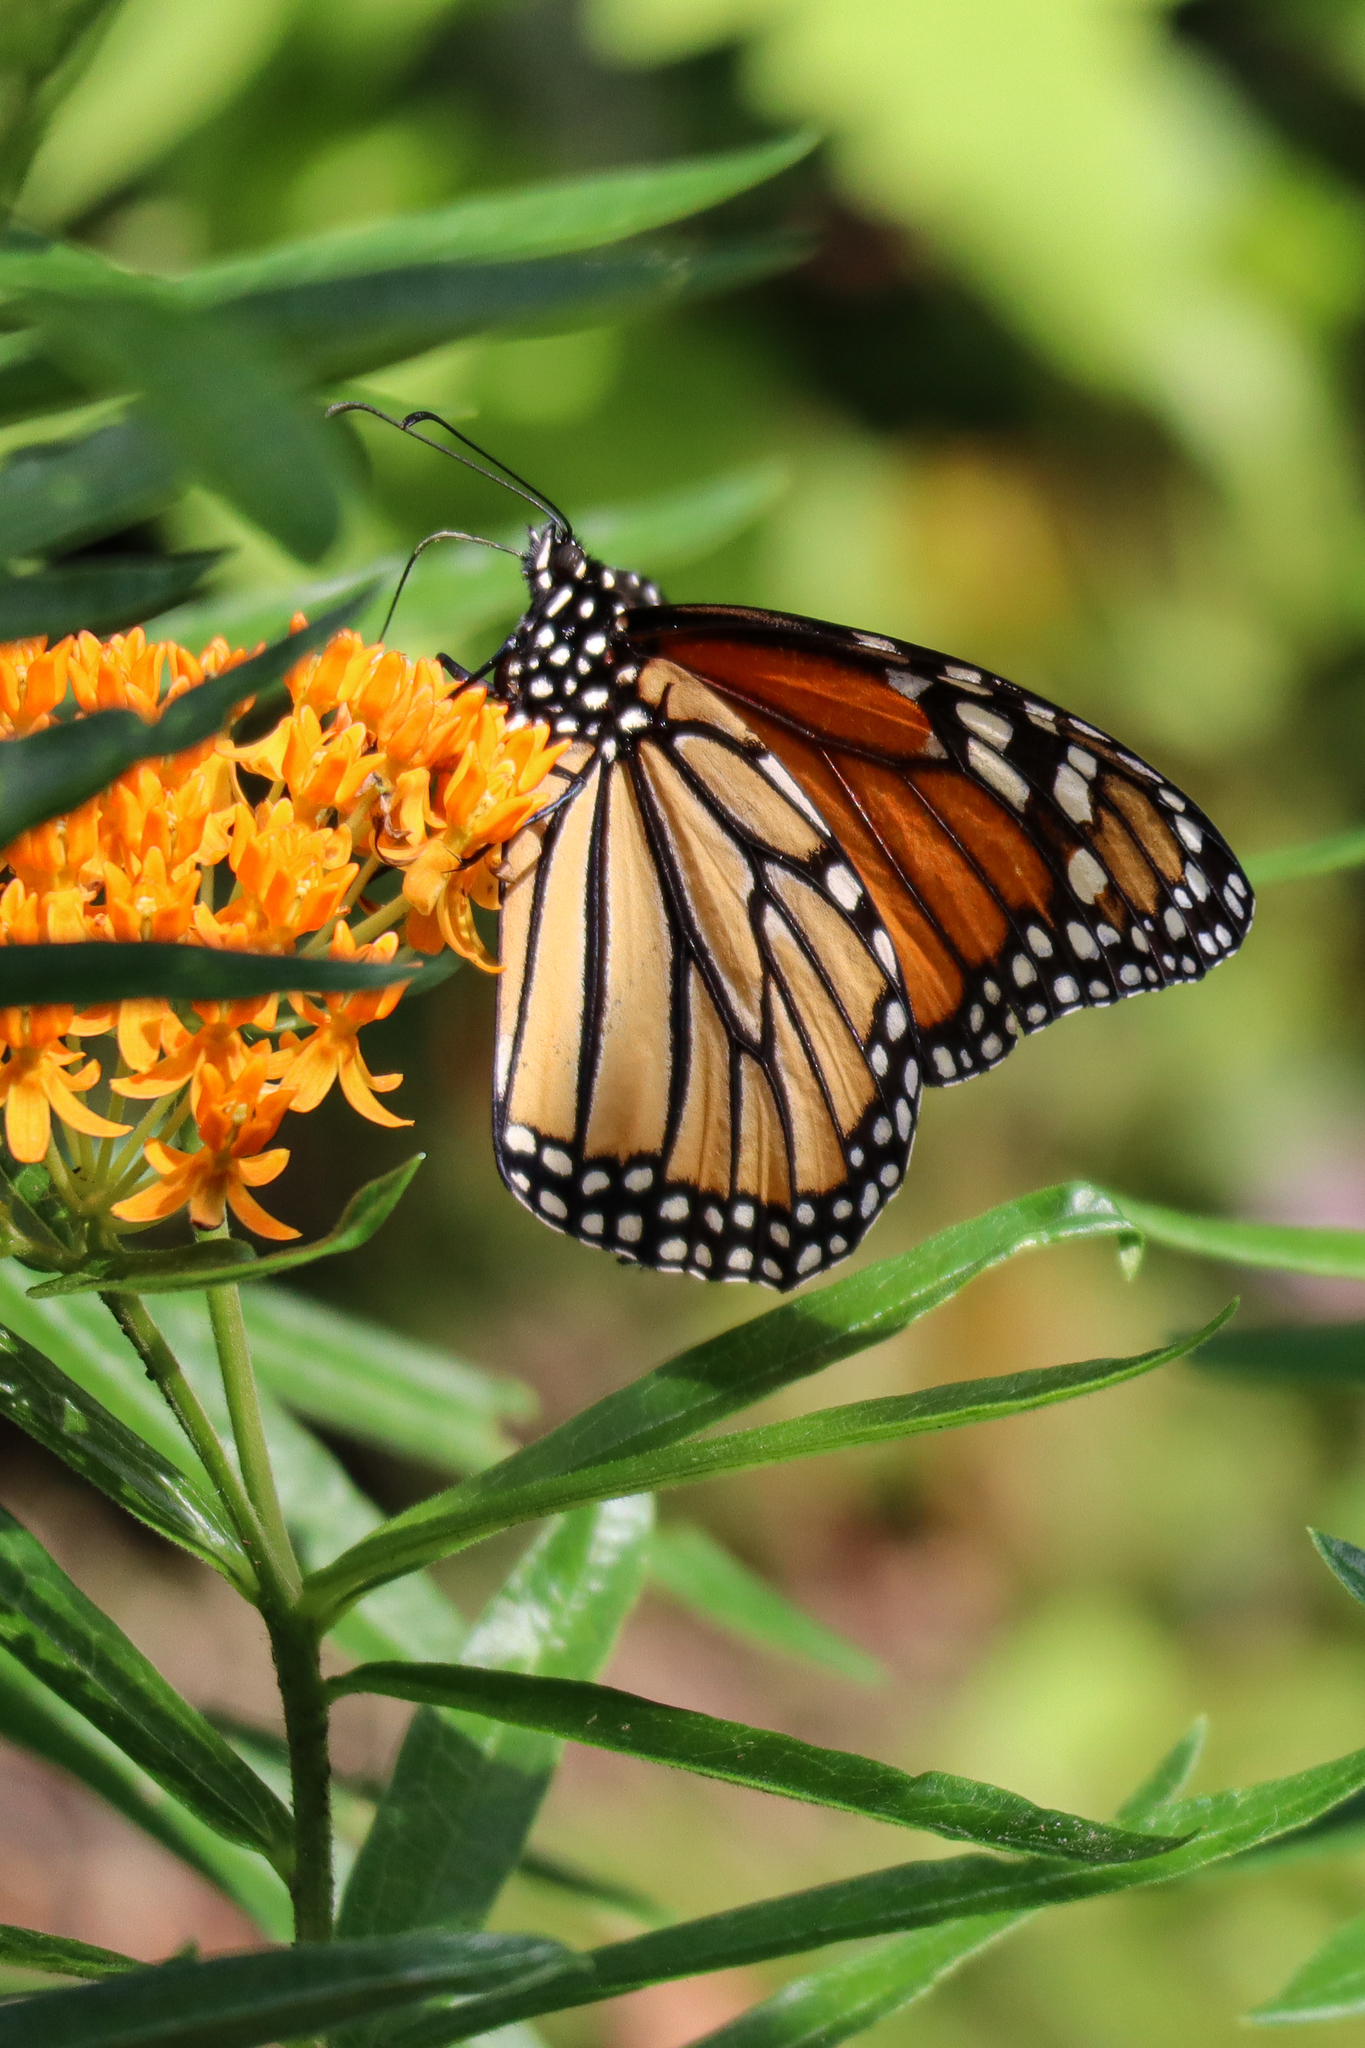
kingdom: Animalia
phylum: Arthropoda
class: Insecta
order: Lepidoptera
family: Nymphalidae
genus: Danaus
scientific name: Danaus plexippus
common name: Monarch
